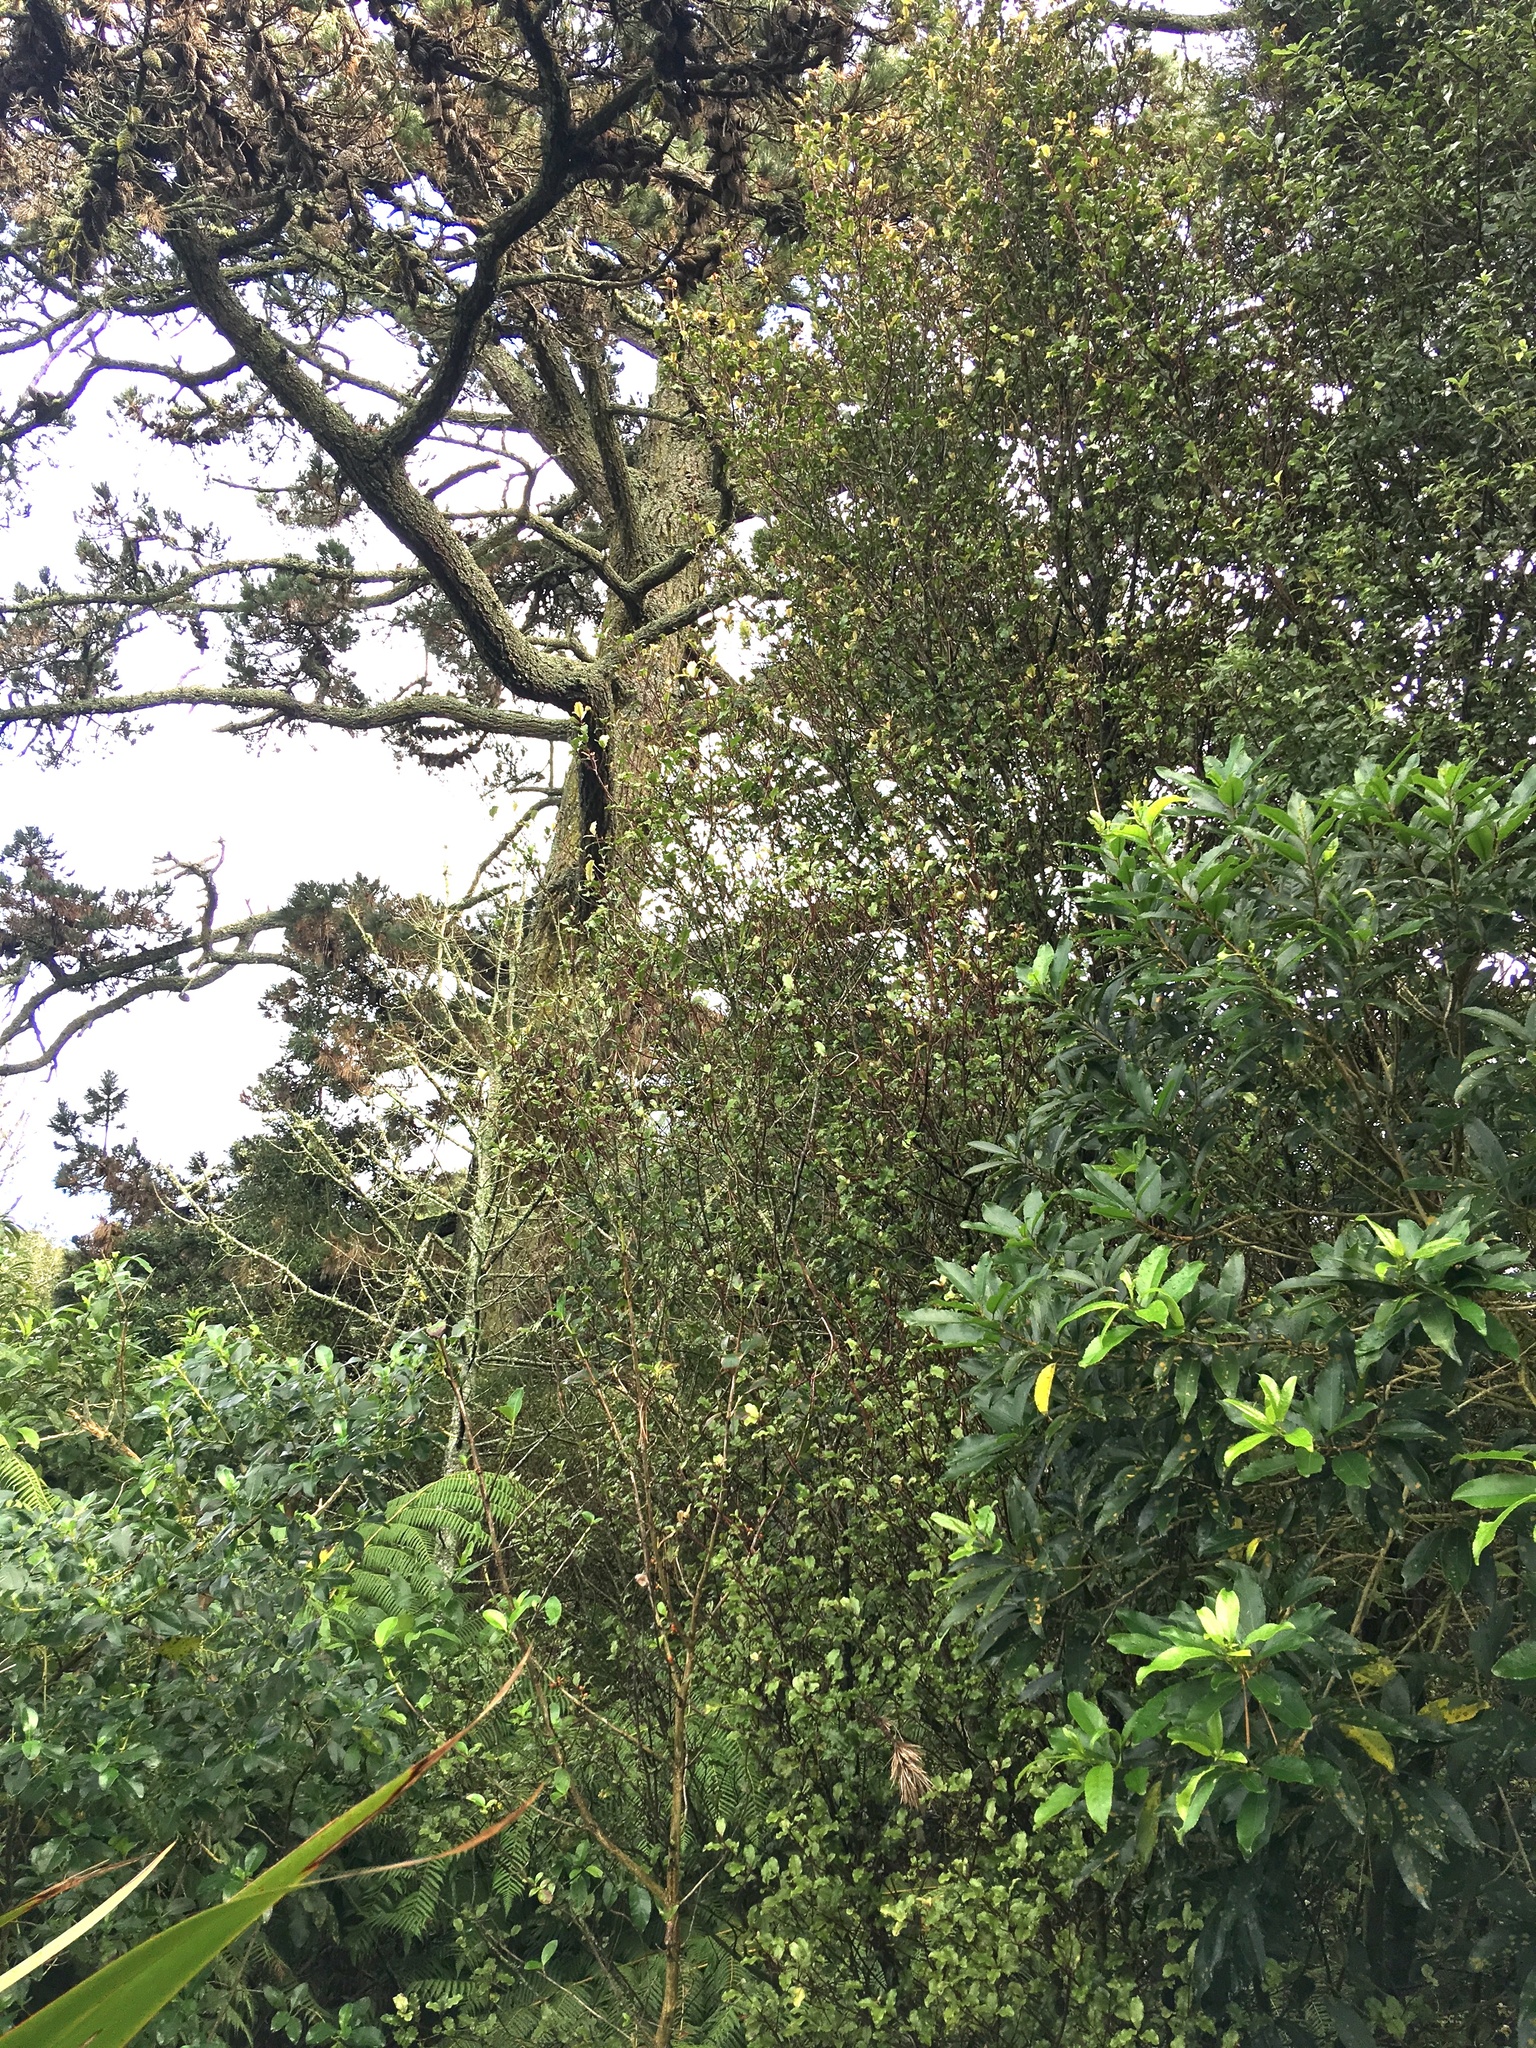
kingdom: Plantae
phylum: Tracheophyta
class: Pinopsida
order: Pinales
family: Pinaceae
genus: Pinus
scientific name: Pinus radiata
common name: Monterey pine
